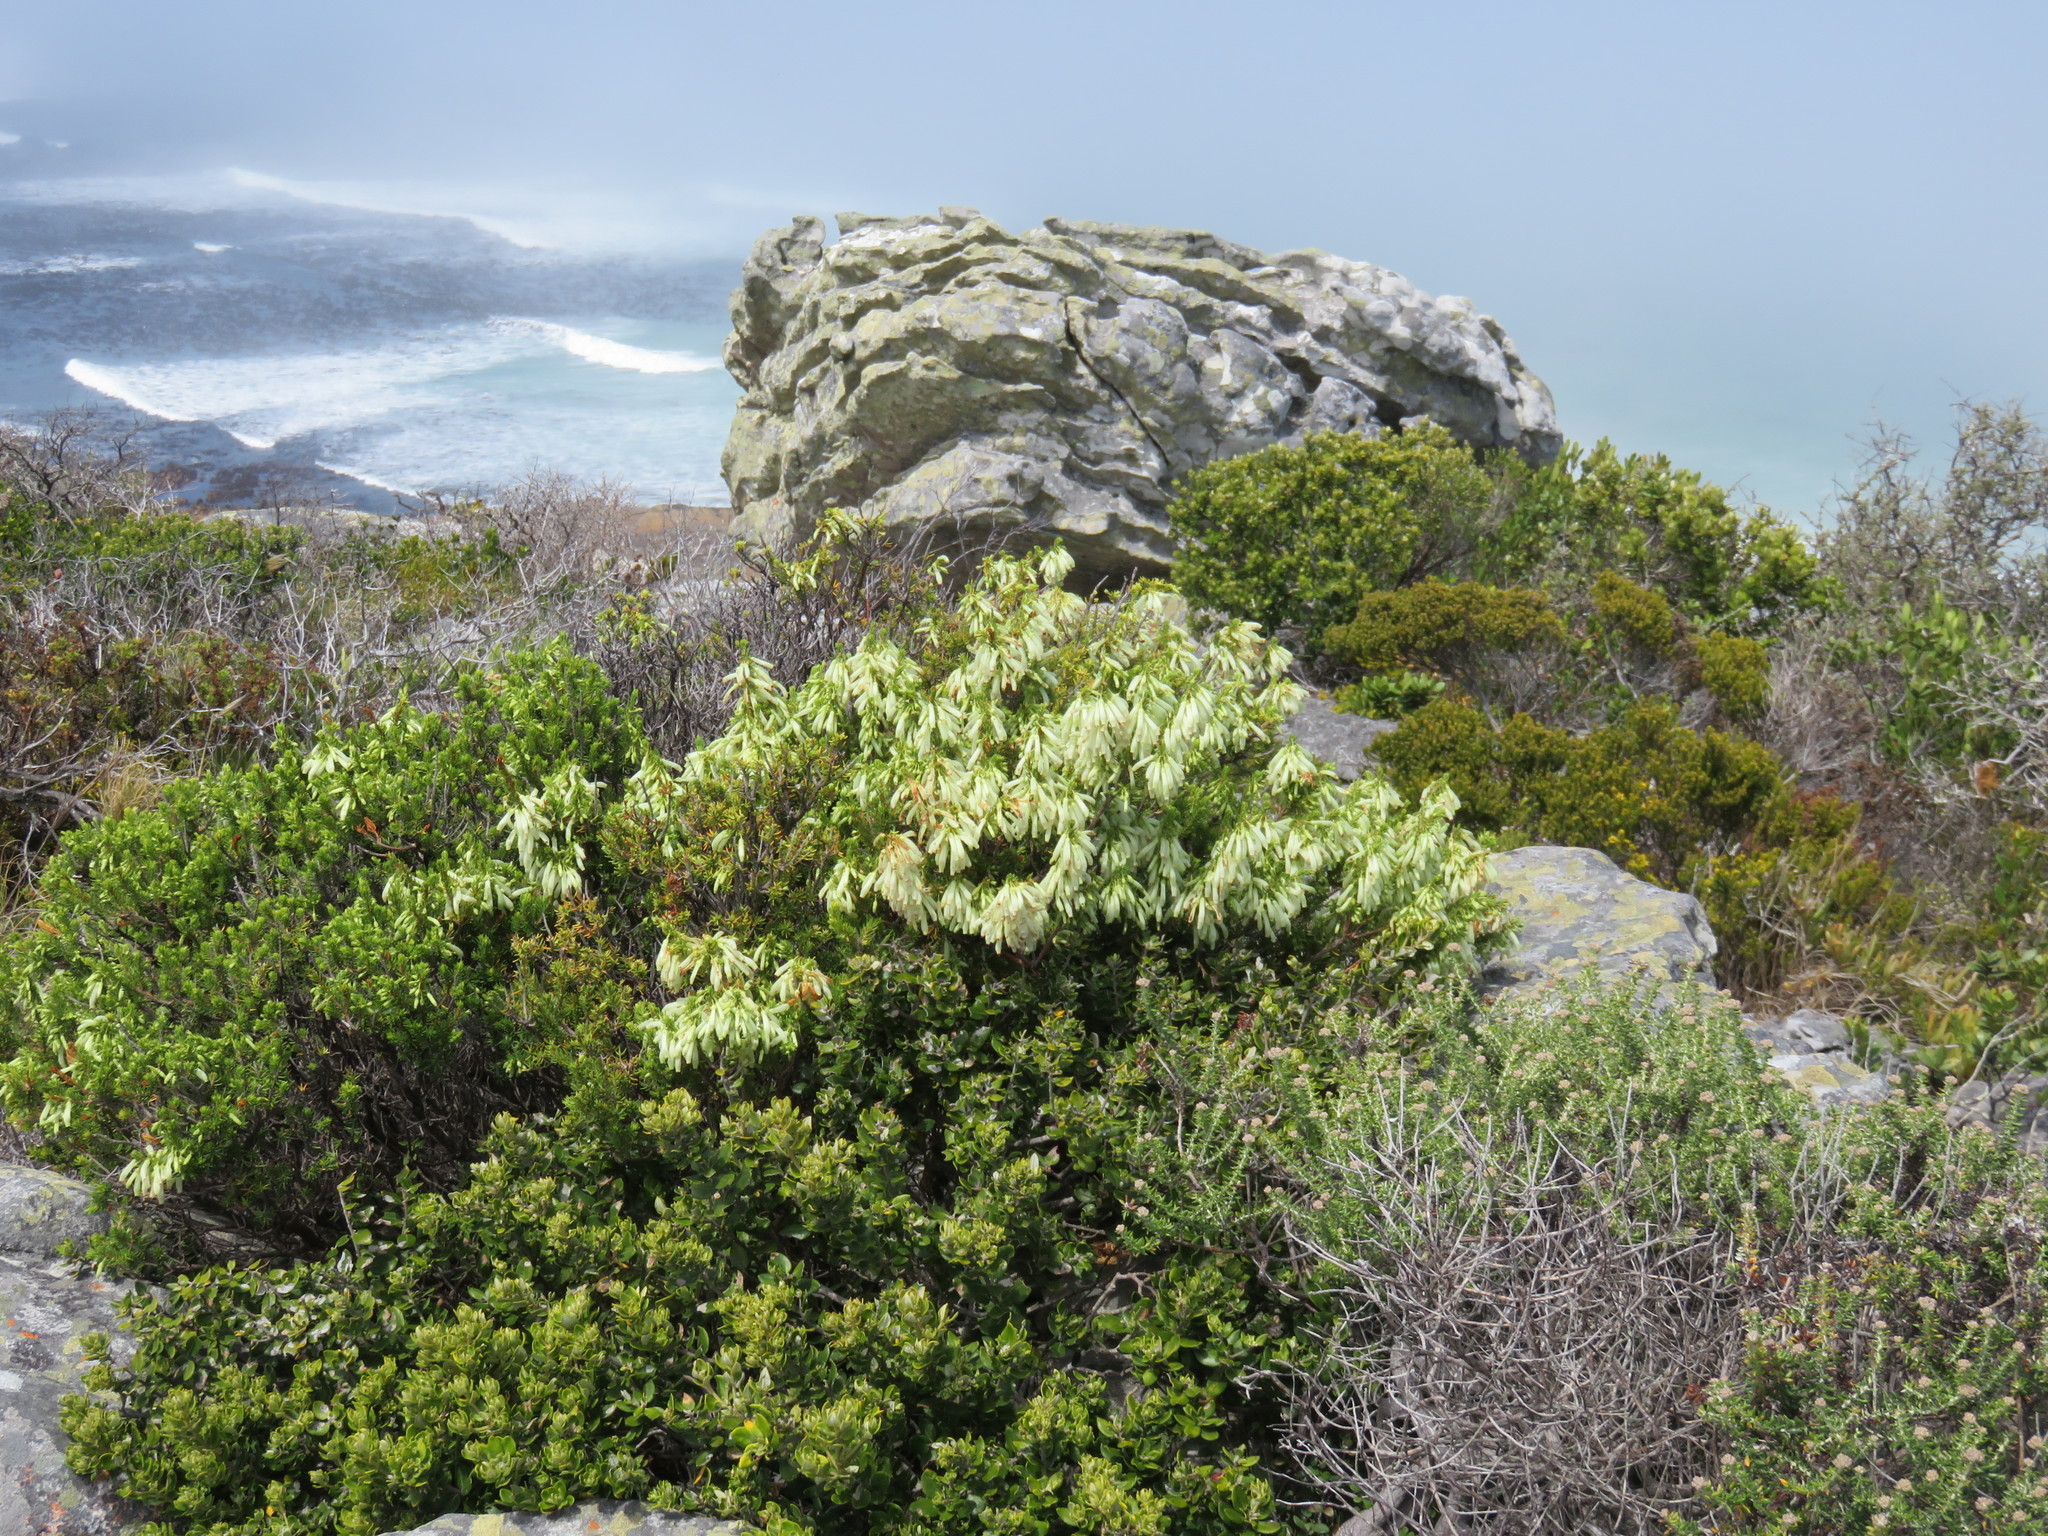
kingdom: Plantae
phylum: Tracheophyta
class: Magnoliopsida
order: Ericales
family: Ericaceae
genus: Erica
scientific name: Erica mammosa
